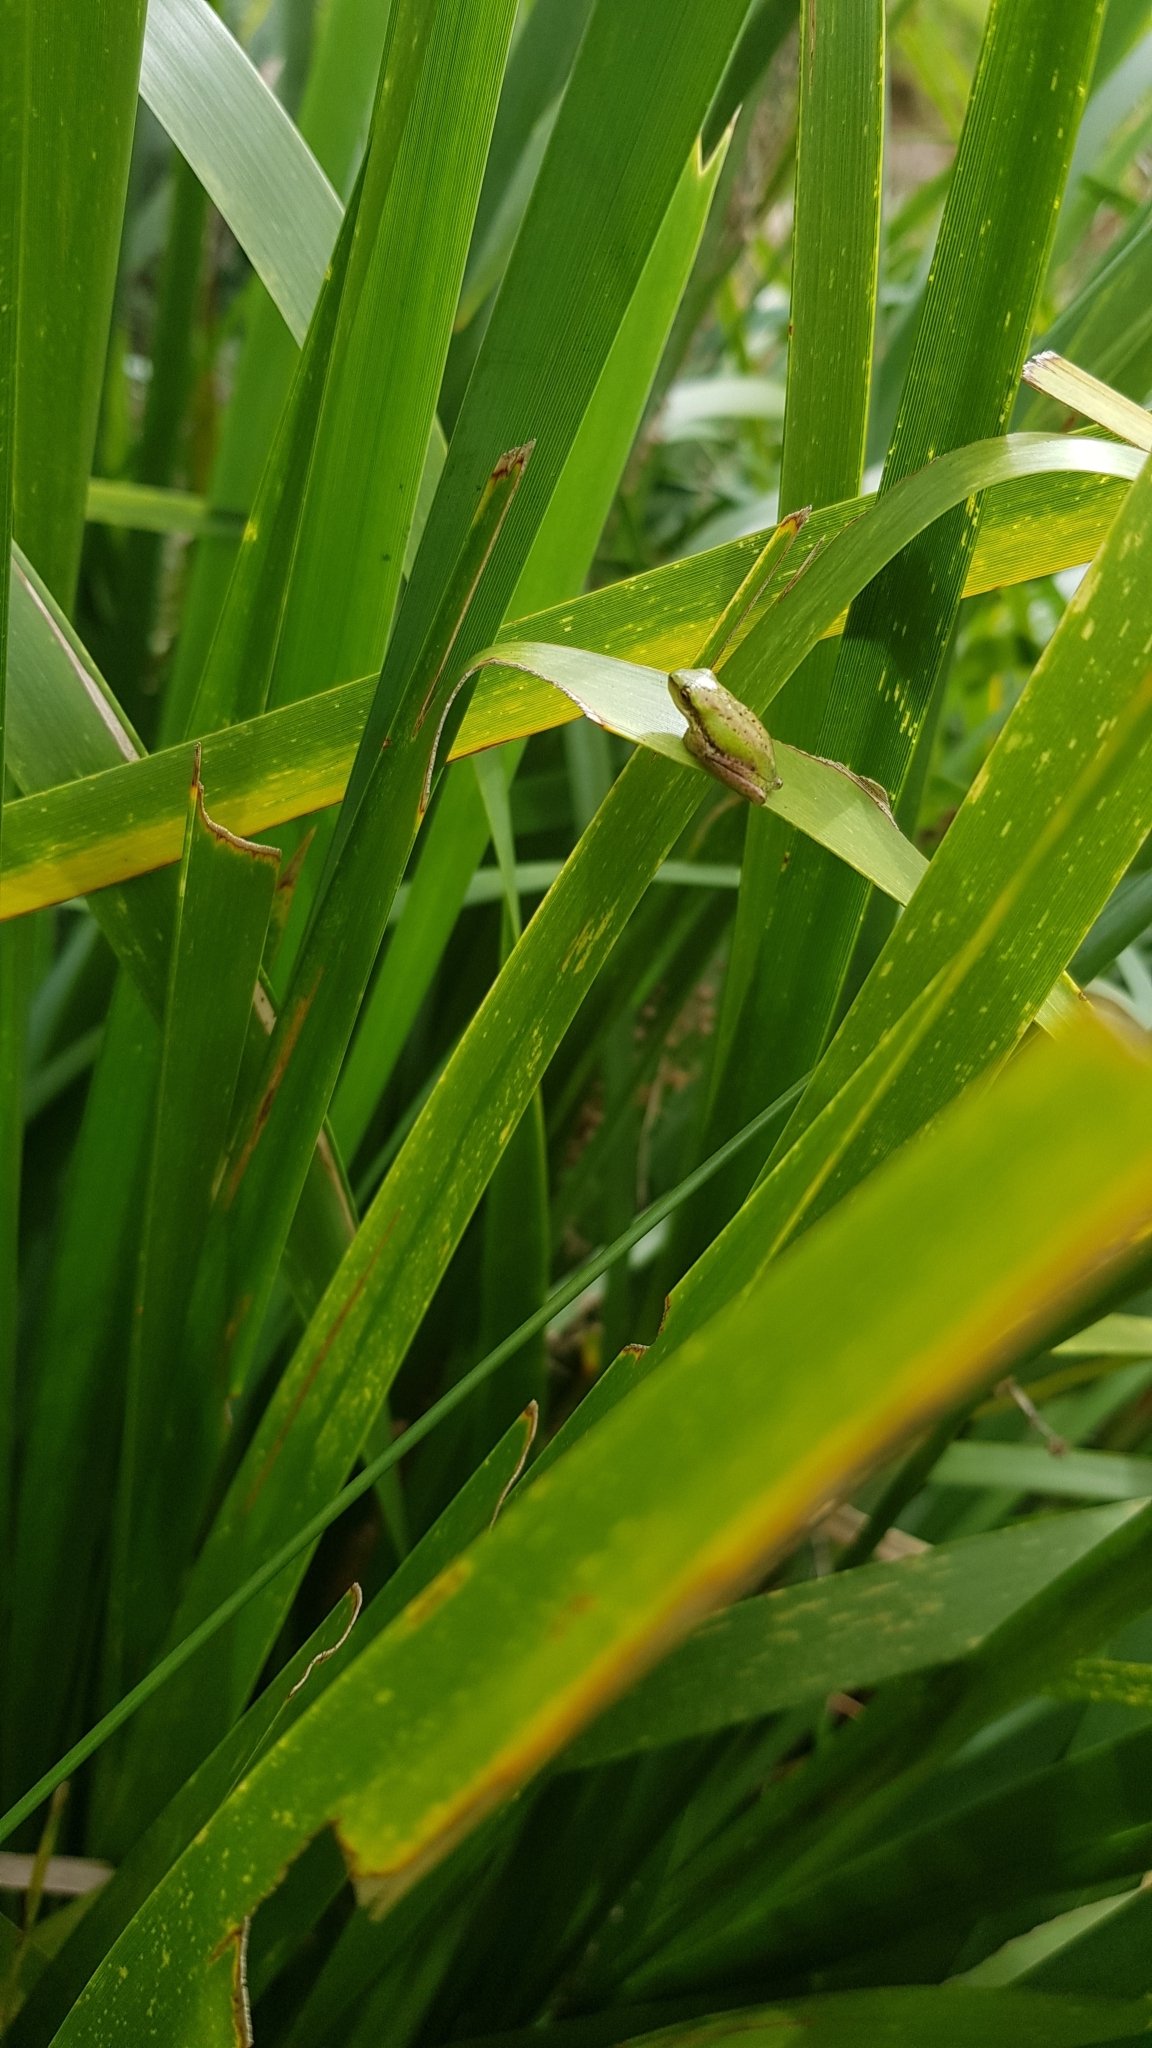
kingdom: Animalia
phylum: Chordata
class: Amphibia
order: Anura
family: Pelodryadidae
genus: Litoria
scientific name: Litoria fallax
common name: Eastern dwarf treefrog
